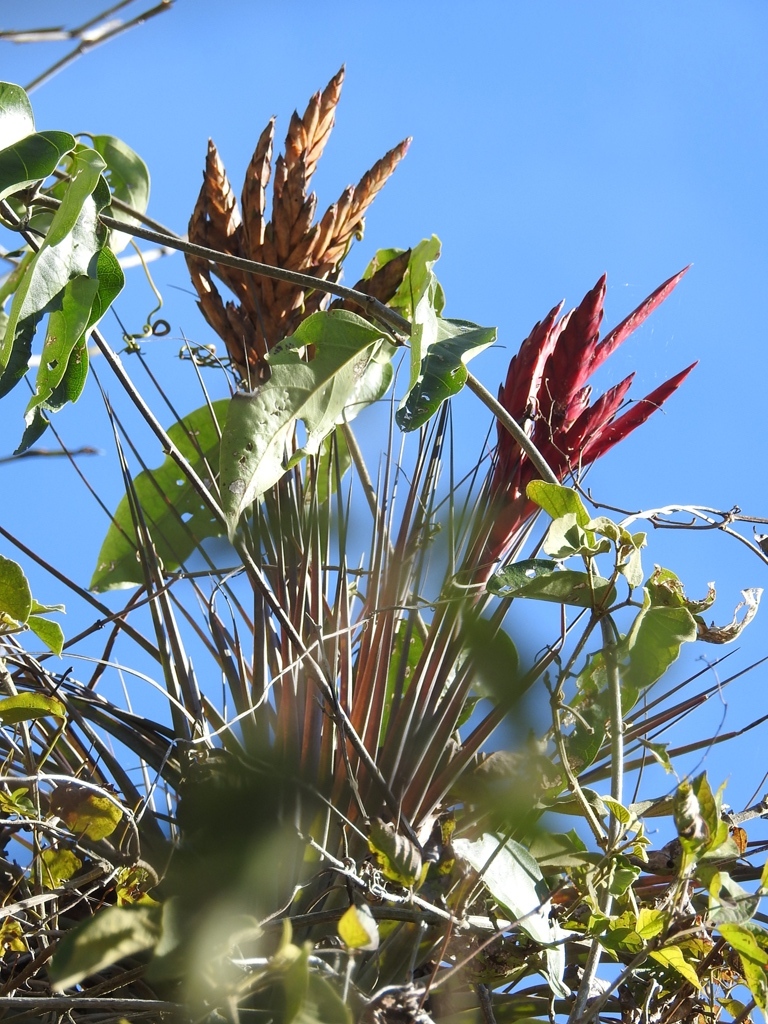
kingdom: Plantae
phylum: Tracheophyta
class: Liliopsida
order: Poales
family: Bromeliaceae
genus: Tillandsia
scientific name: Tillandsia fasciculata
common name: Giant airplant
